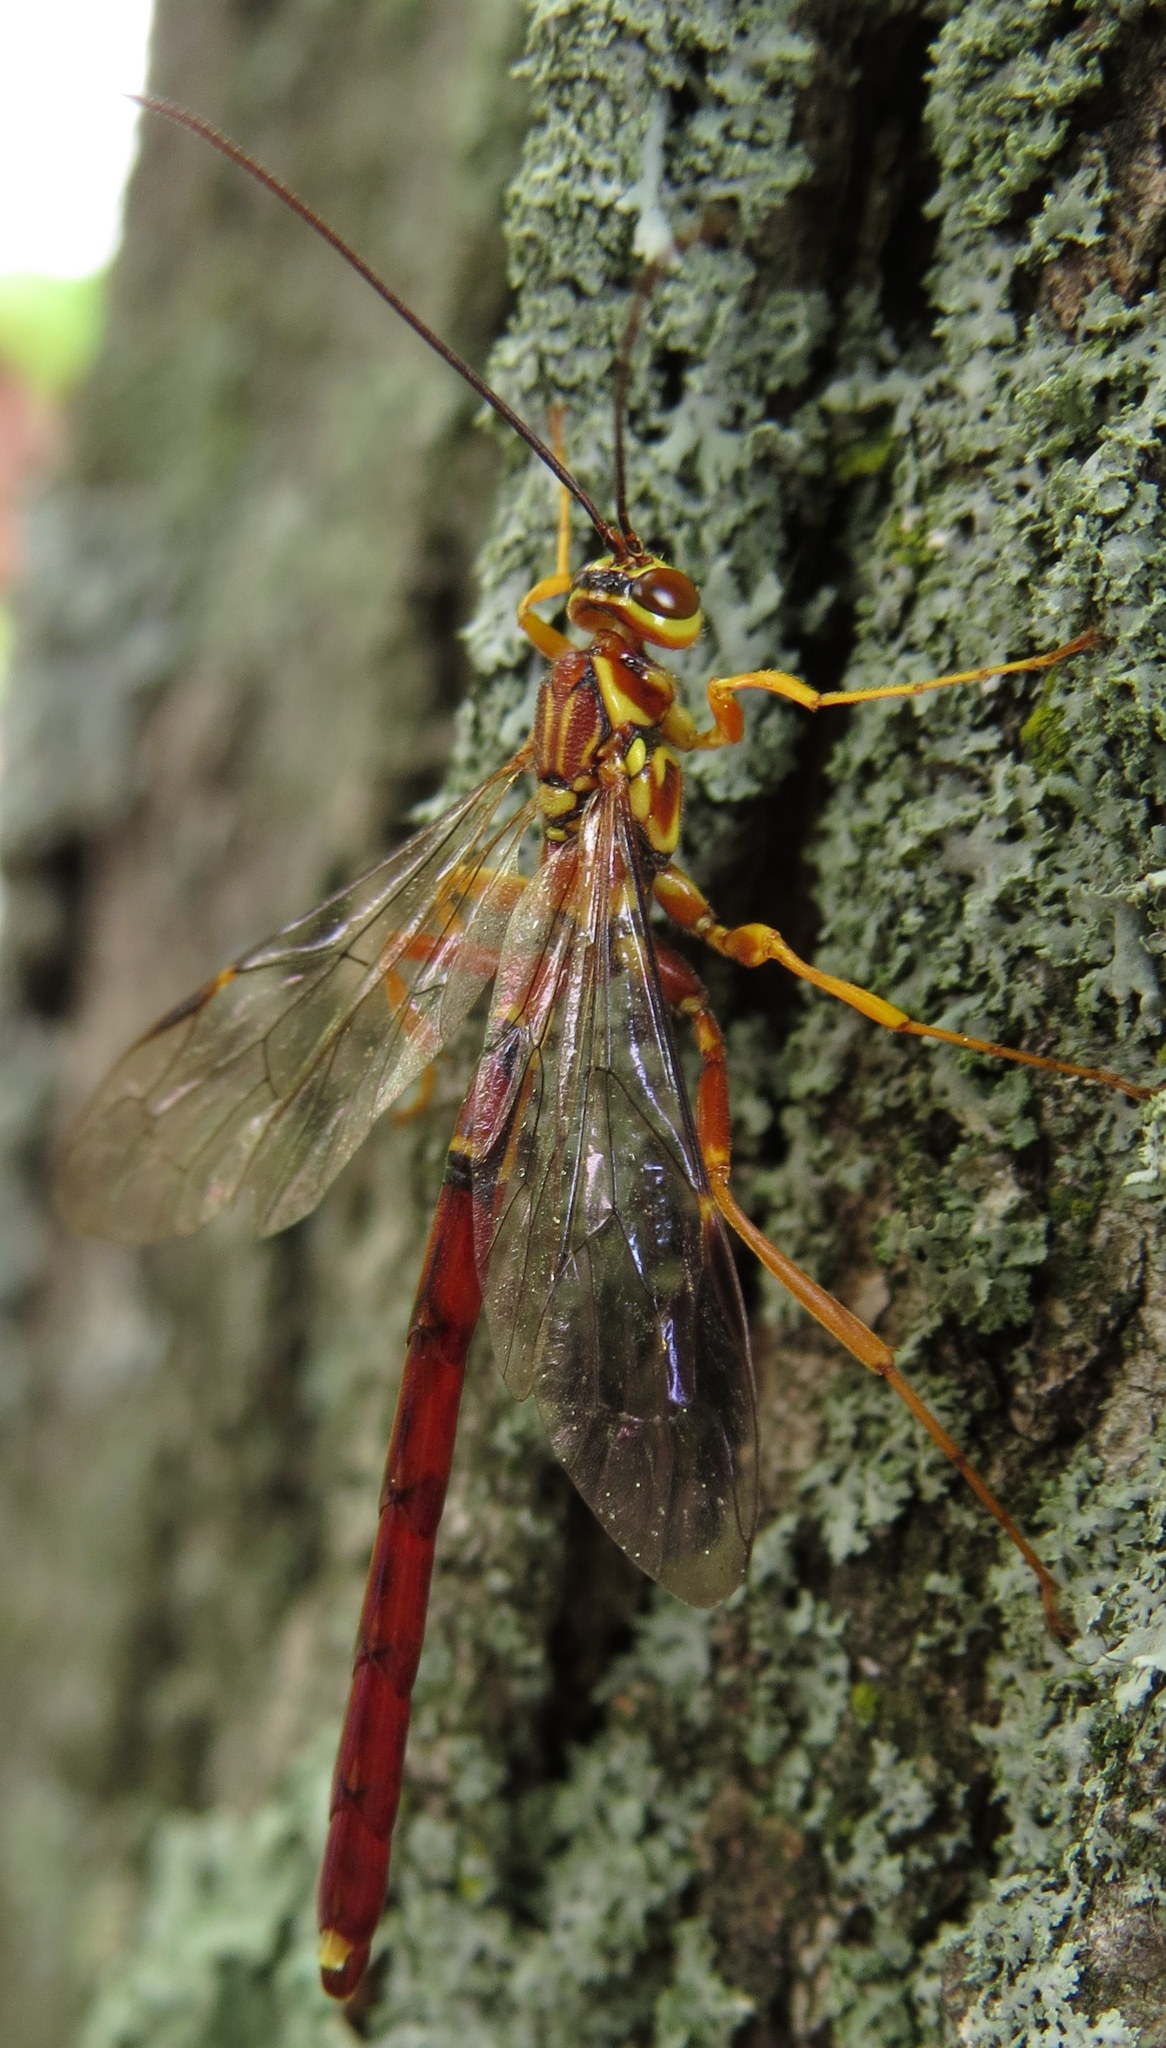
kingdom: Animalia
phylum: Arthropoda
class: Insecta
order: Hymenoptera
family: Ichneumonidae
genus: Megarhyssa
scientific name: Megarhyssa greenei
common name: Greene's giant ichneumonid wasp
